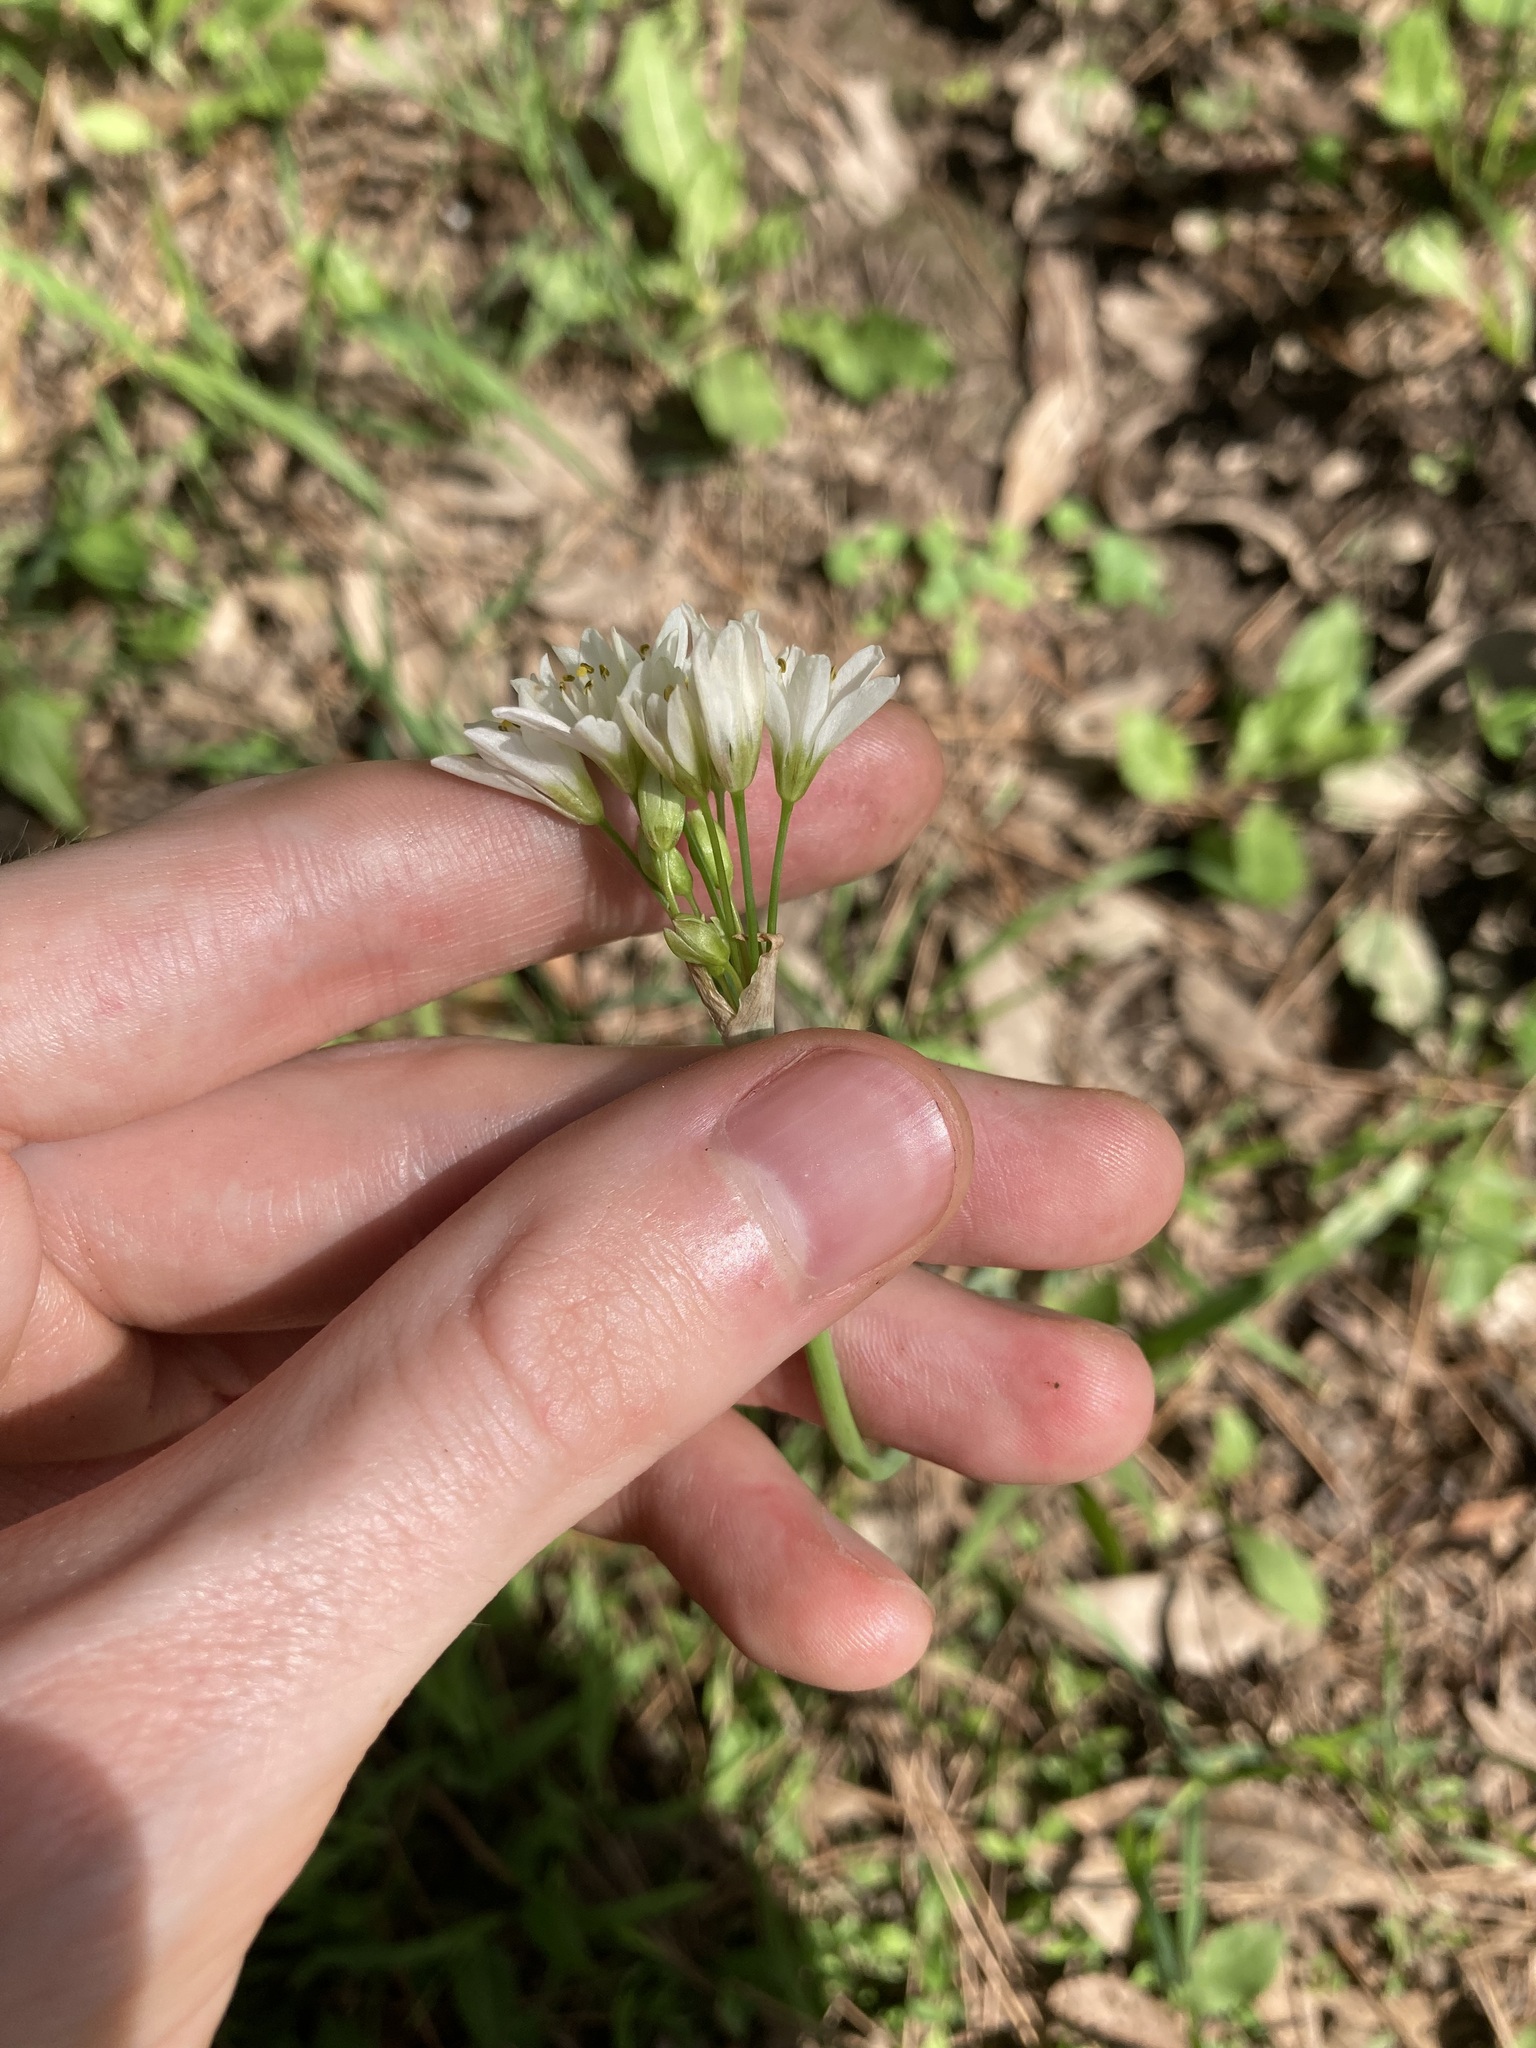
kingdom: Plantae
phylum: Tracheophyta
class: Liliopsida
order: Asparagales
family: Amaryllidaceae
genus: Nothoscordum
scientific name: Nothoscordum gracile
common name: Slender false garlic
